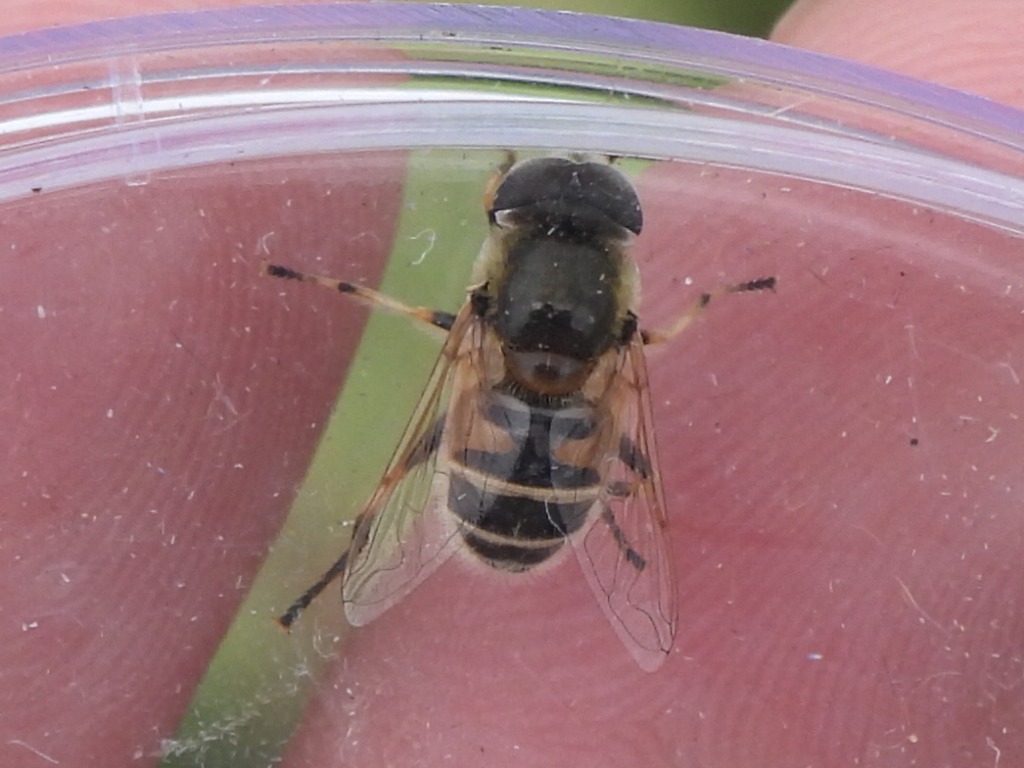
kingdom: Animalia
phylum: Arthropoda
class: Insecta
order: Diptera
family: Syrphidae
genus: Eristalis
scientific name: Eristalis stipator
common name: Yellow-shouldered drone fly
